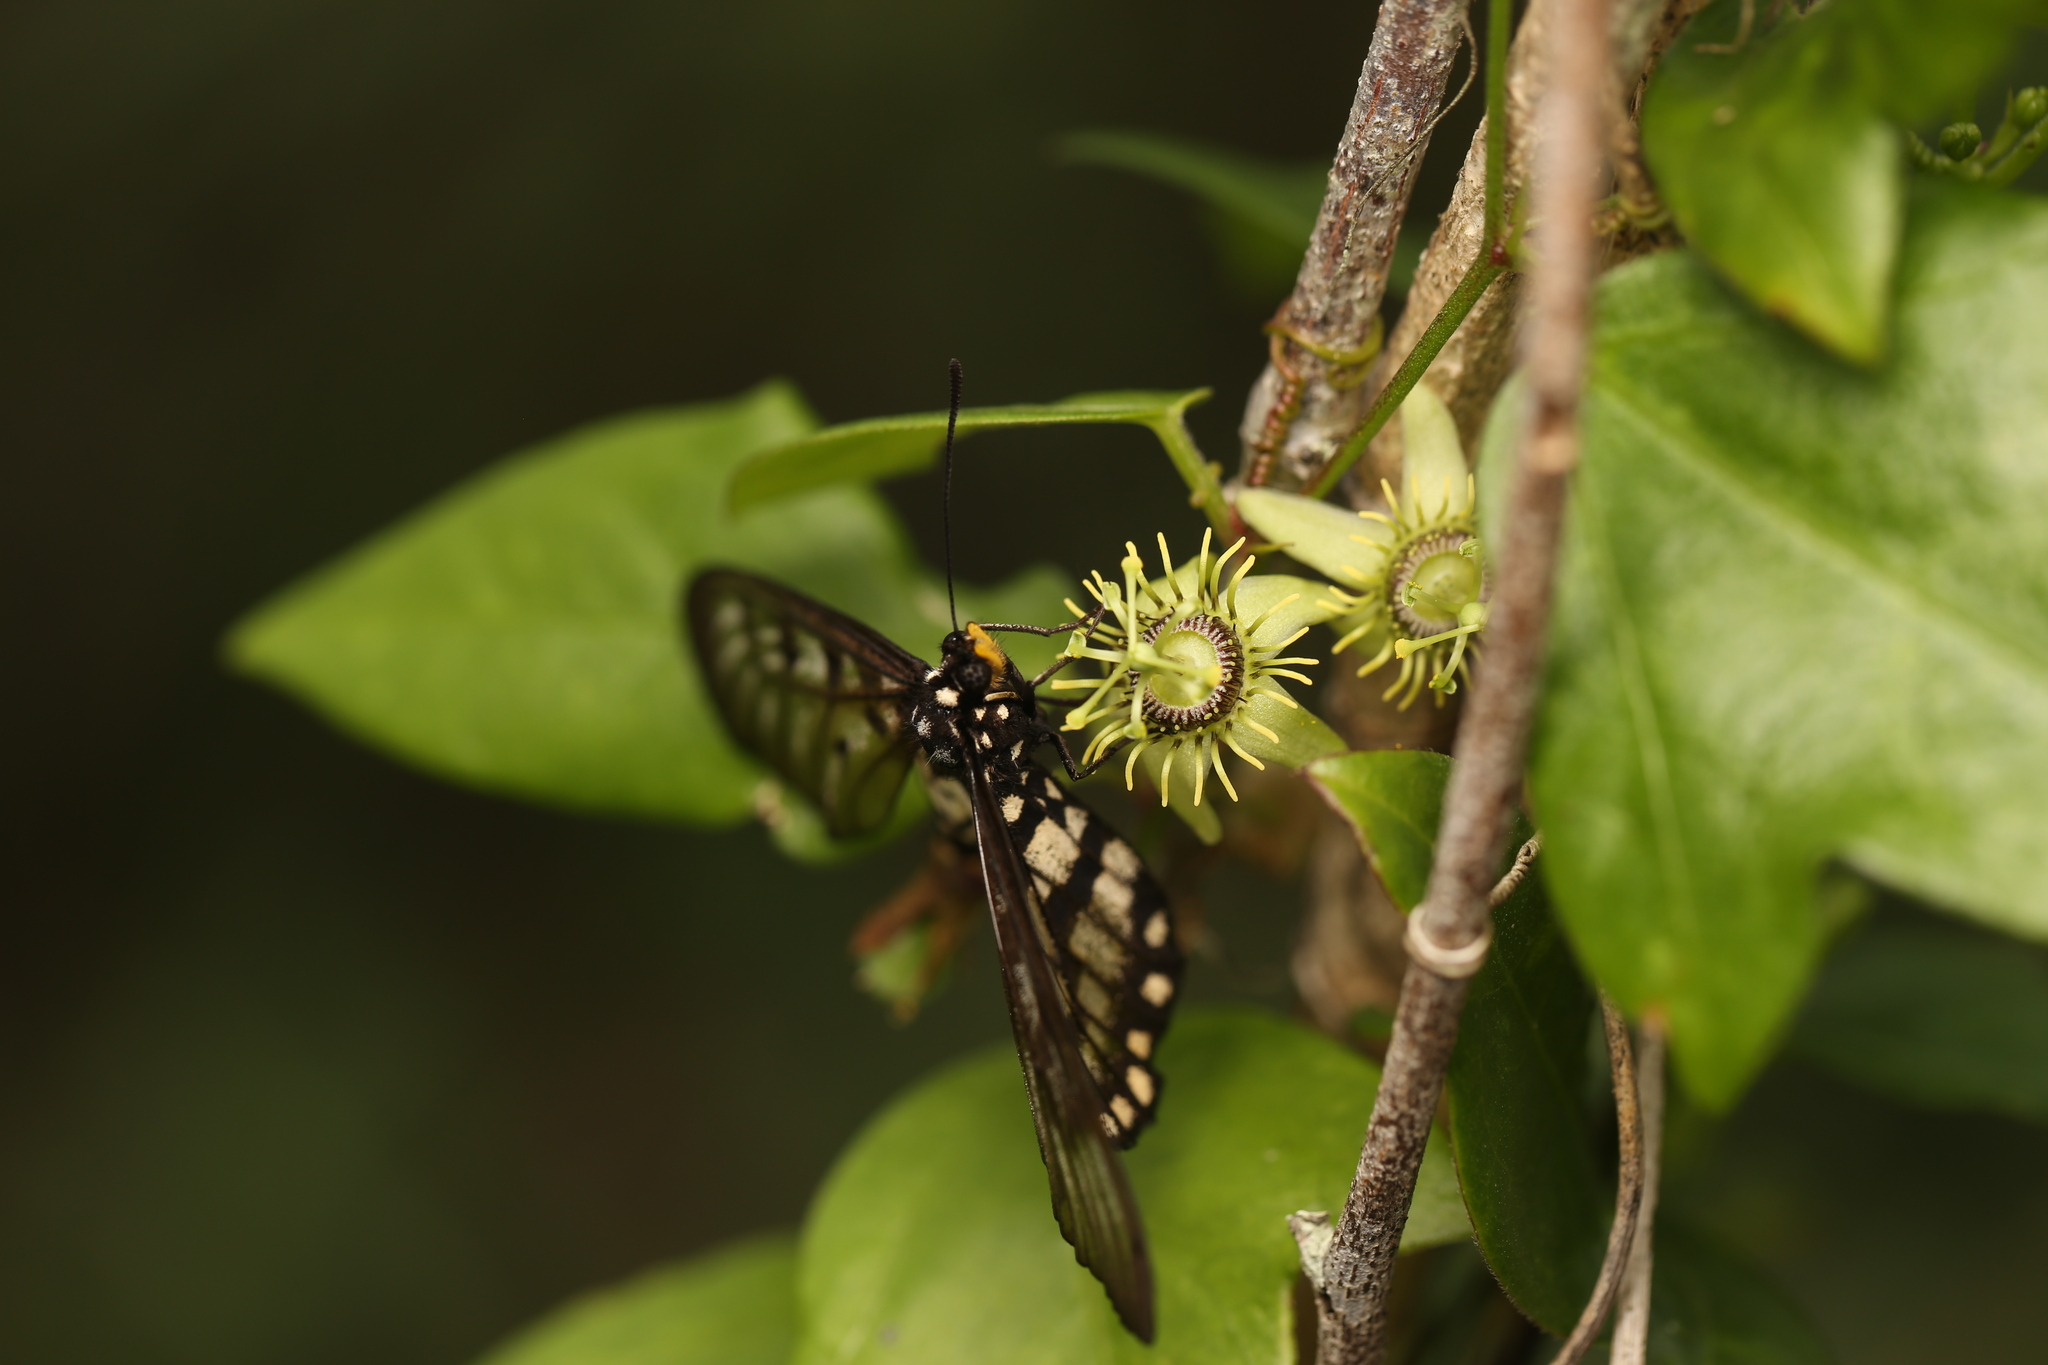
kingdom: Animalia
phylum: Arthropoda
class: Insecta
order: Lepidoptera
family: Nymphalidae
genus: Acraea
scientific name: Acraea andromacha
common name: Glasswing
